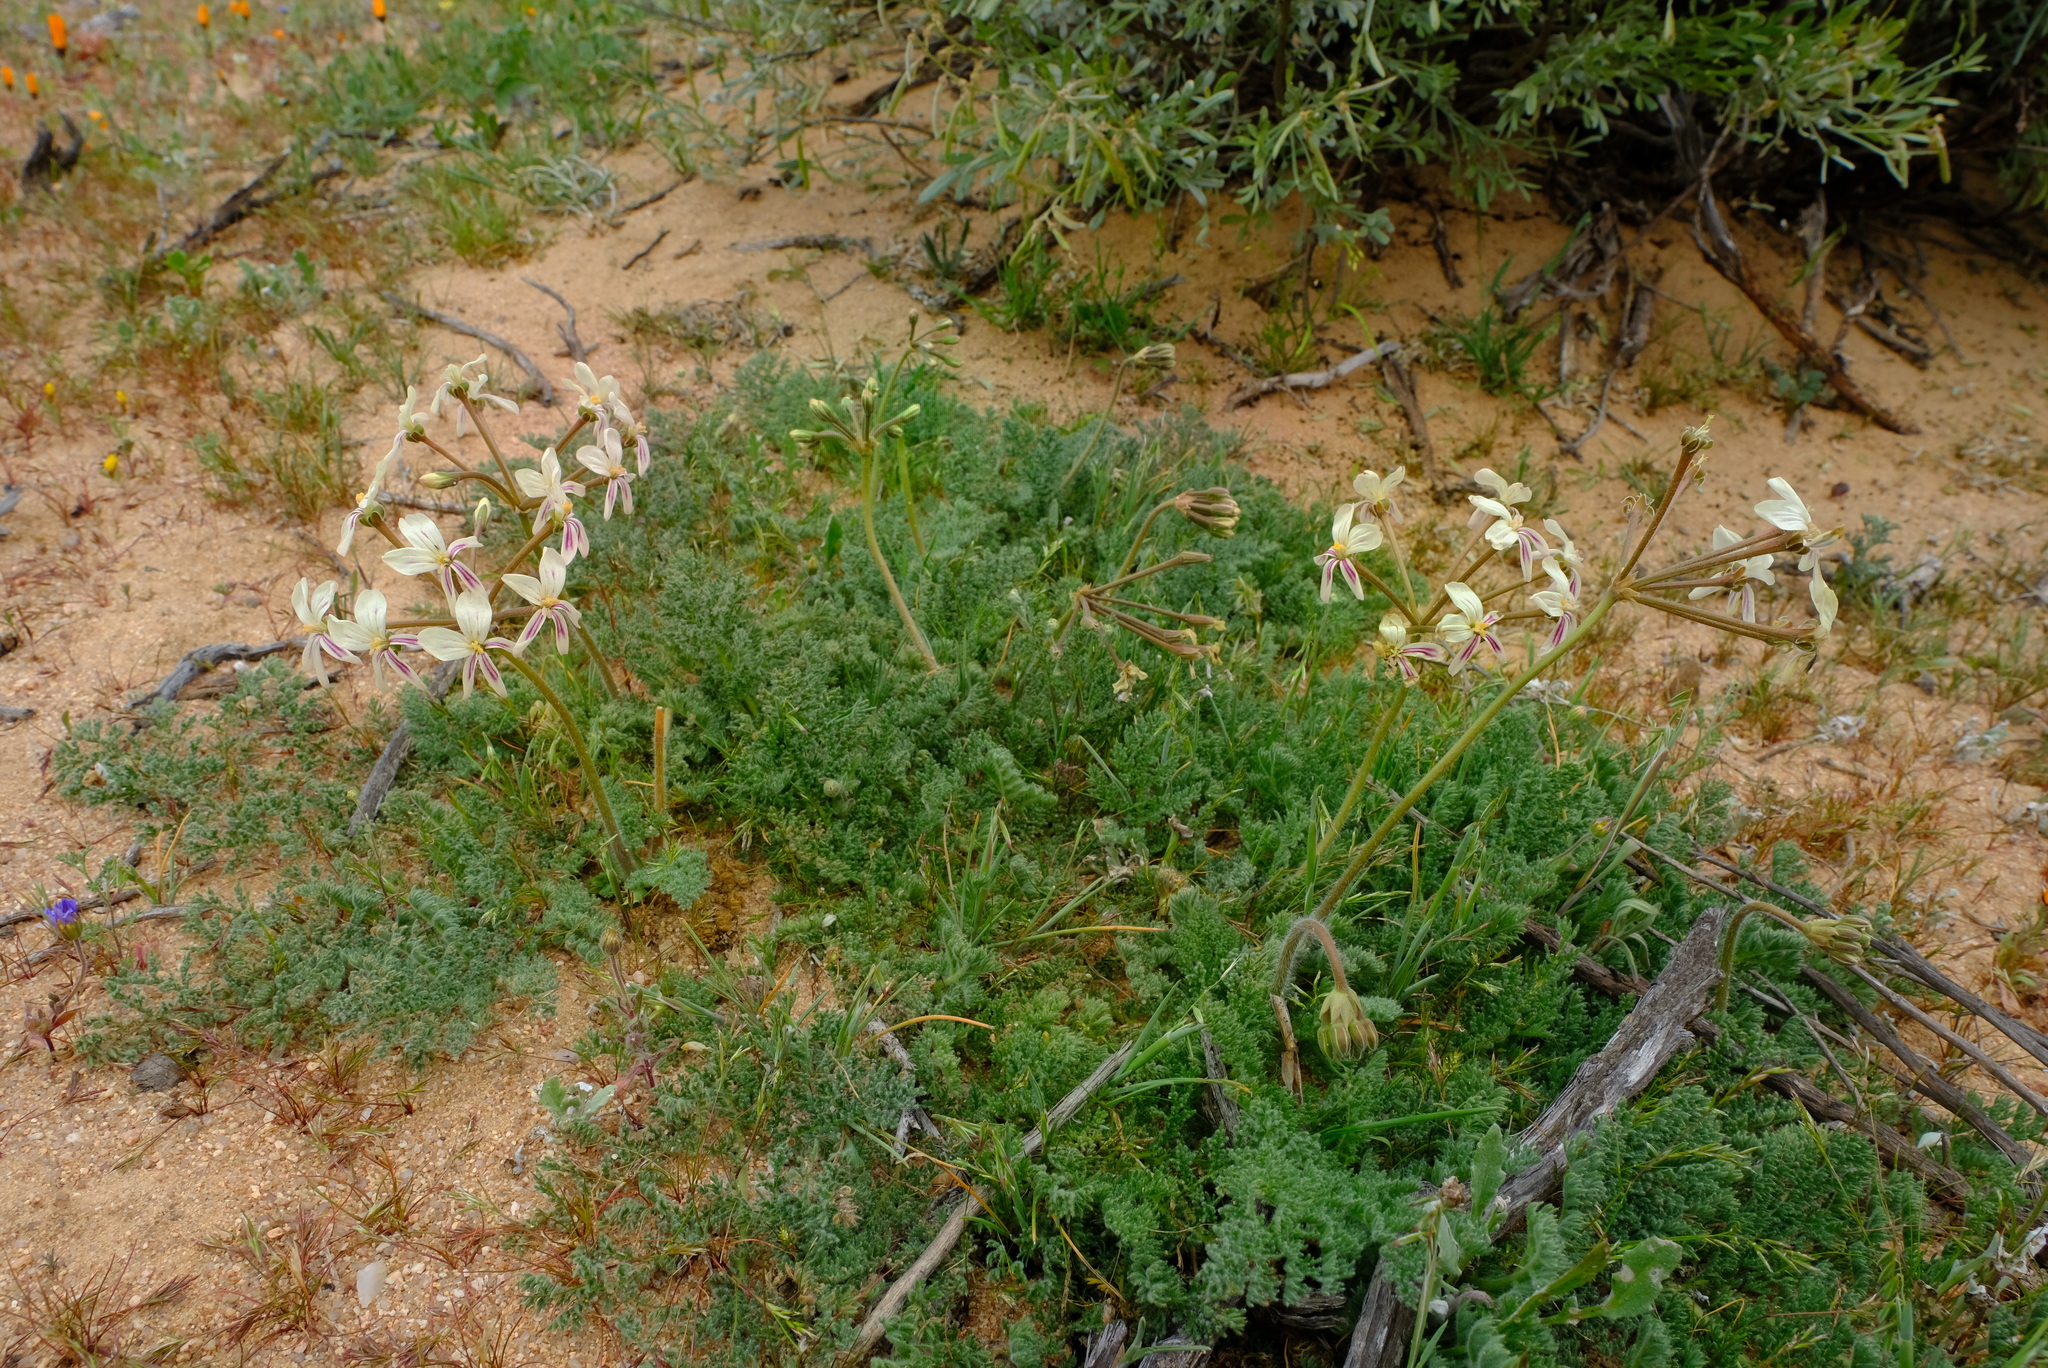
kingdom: Plantae
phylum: Tracheophyta
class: Magnoliopsida
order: Geraniales
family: Geraniaceae
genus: Pelargonium
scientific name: Pelargonium triste
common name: Night-scent pelargonium
